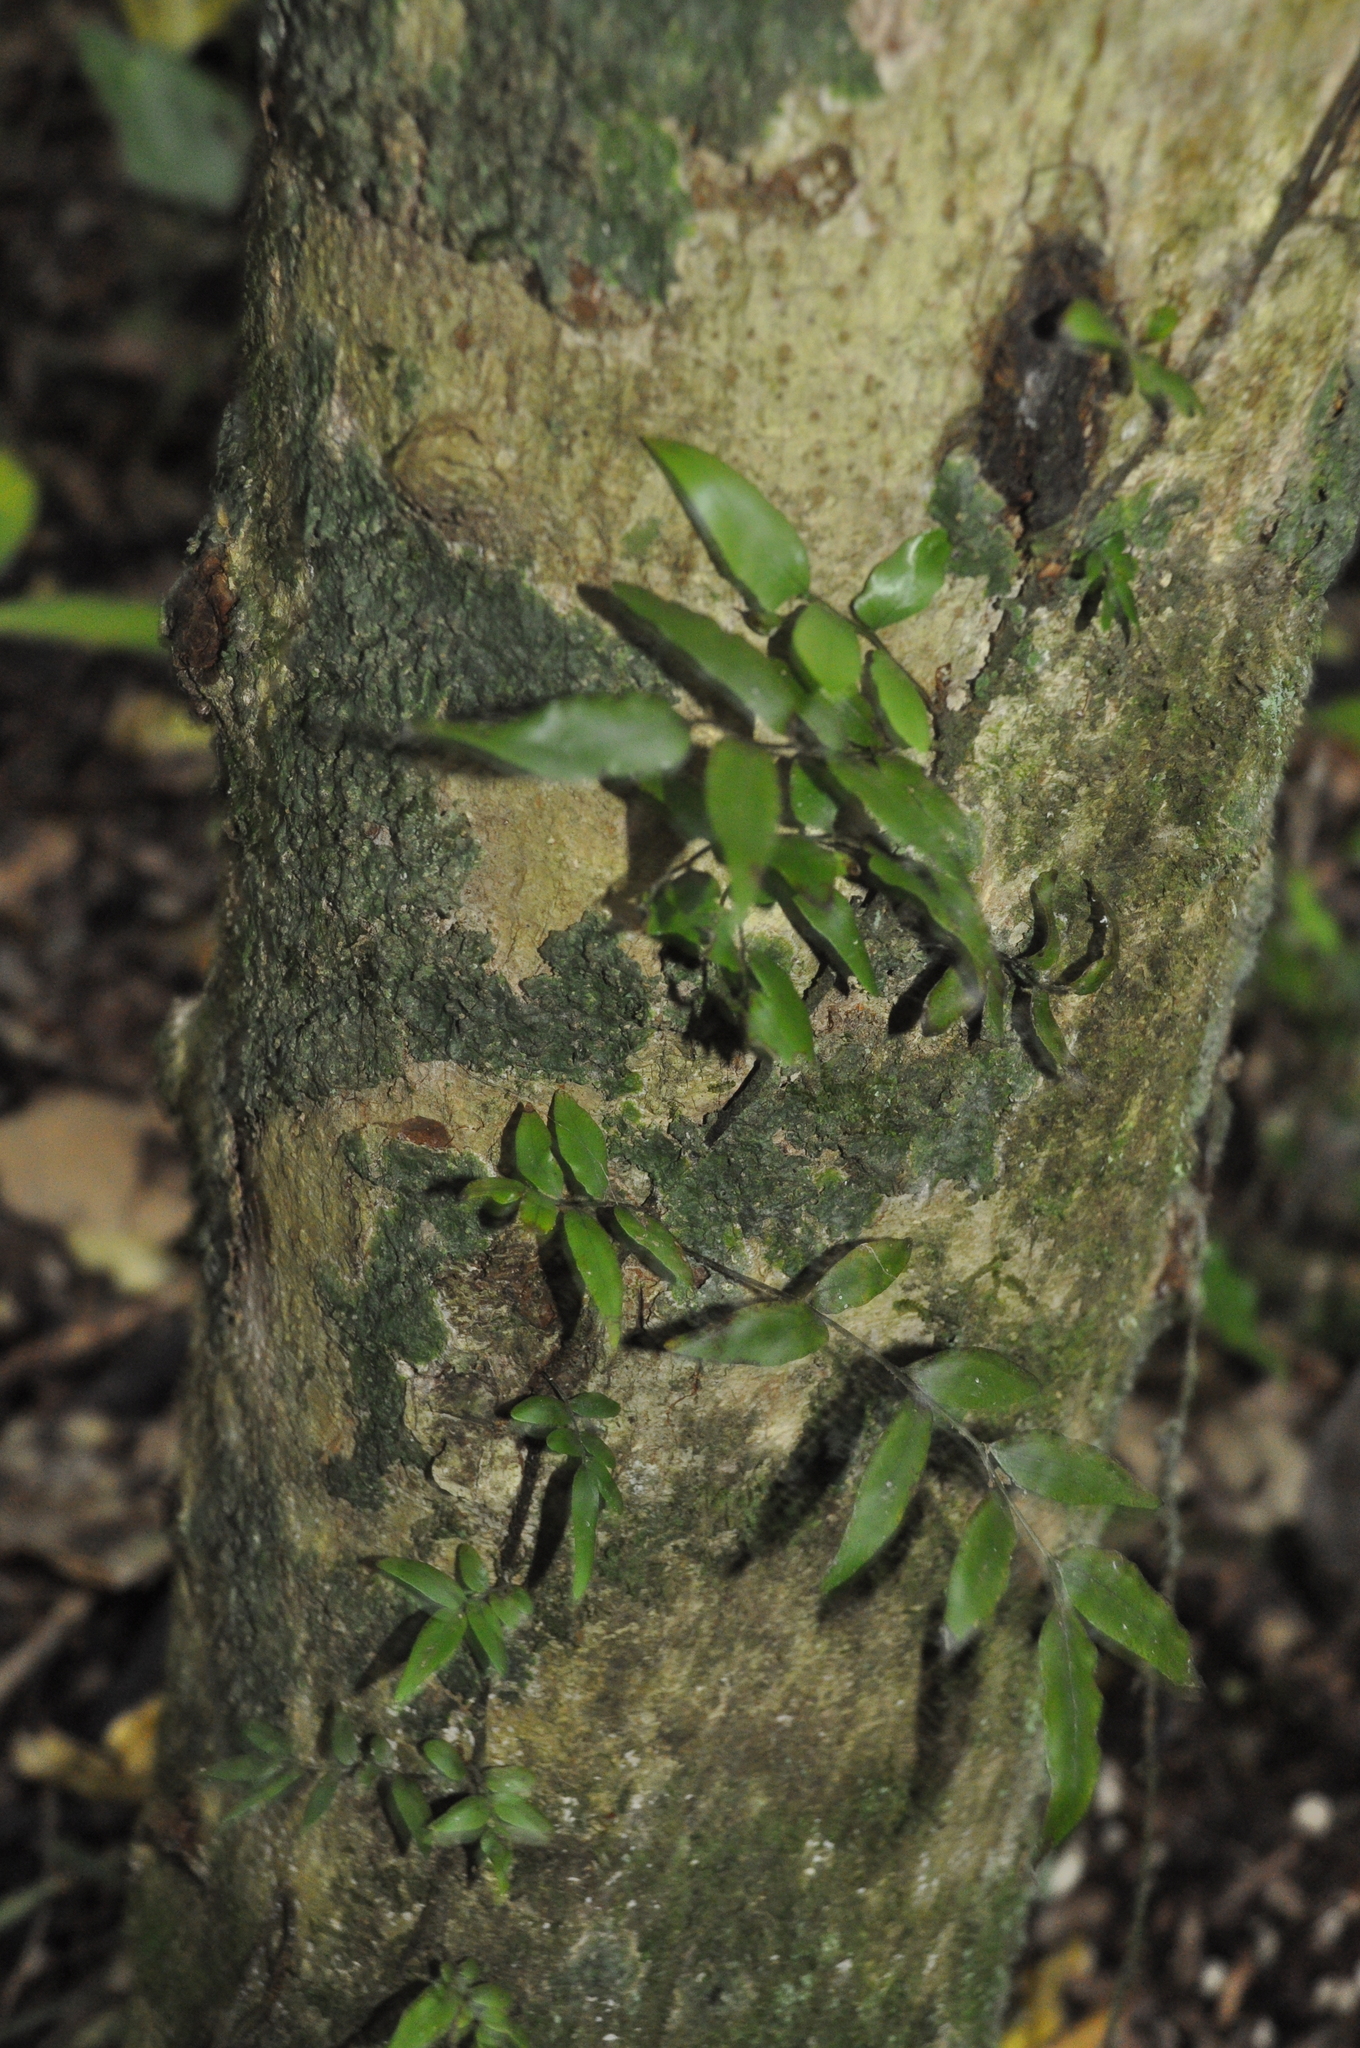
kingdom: Plantae
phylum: Tracheophyta
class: Polypodiopsida
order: Polypodiales
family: Tectariaceae
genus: Arthropteris
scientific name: Arthropteris tenella
